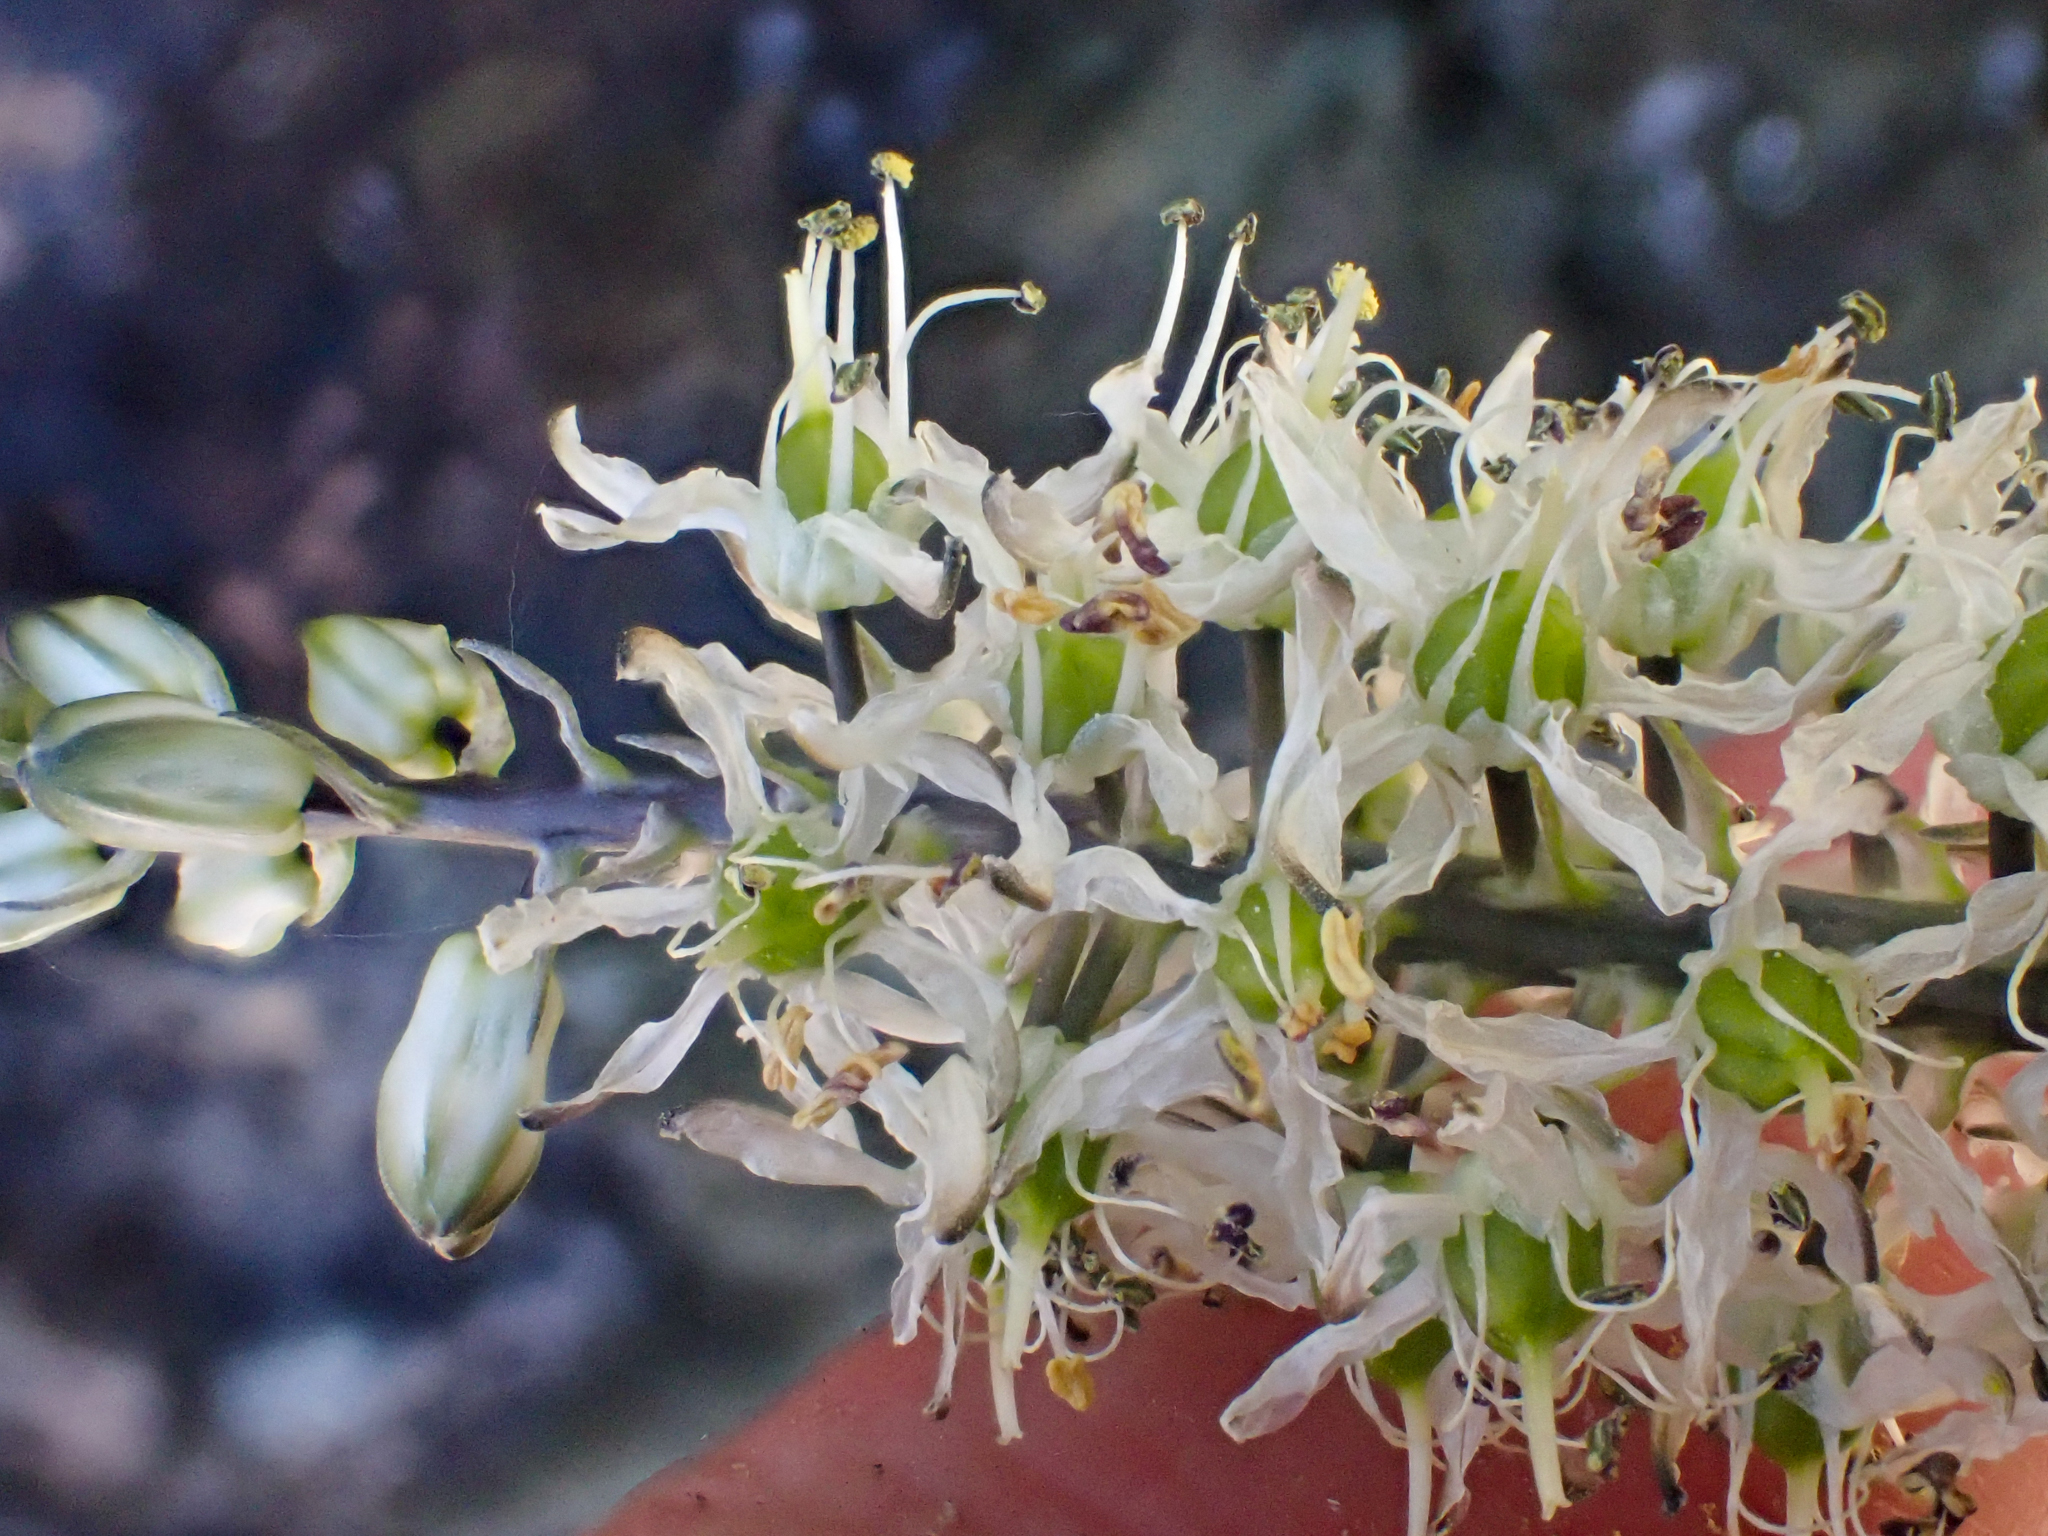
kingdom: Plantae
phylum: Tracheophyta
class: Liliopsida
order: Asparagales
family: Asparagaceae
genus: Hastingsia
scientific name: Hastingsia serpentinicola
